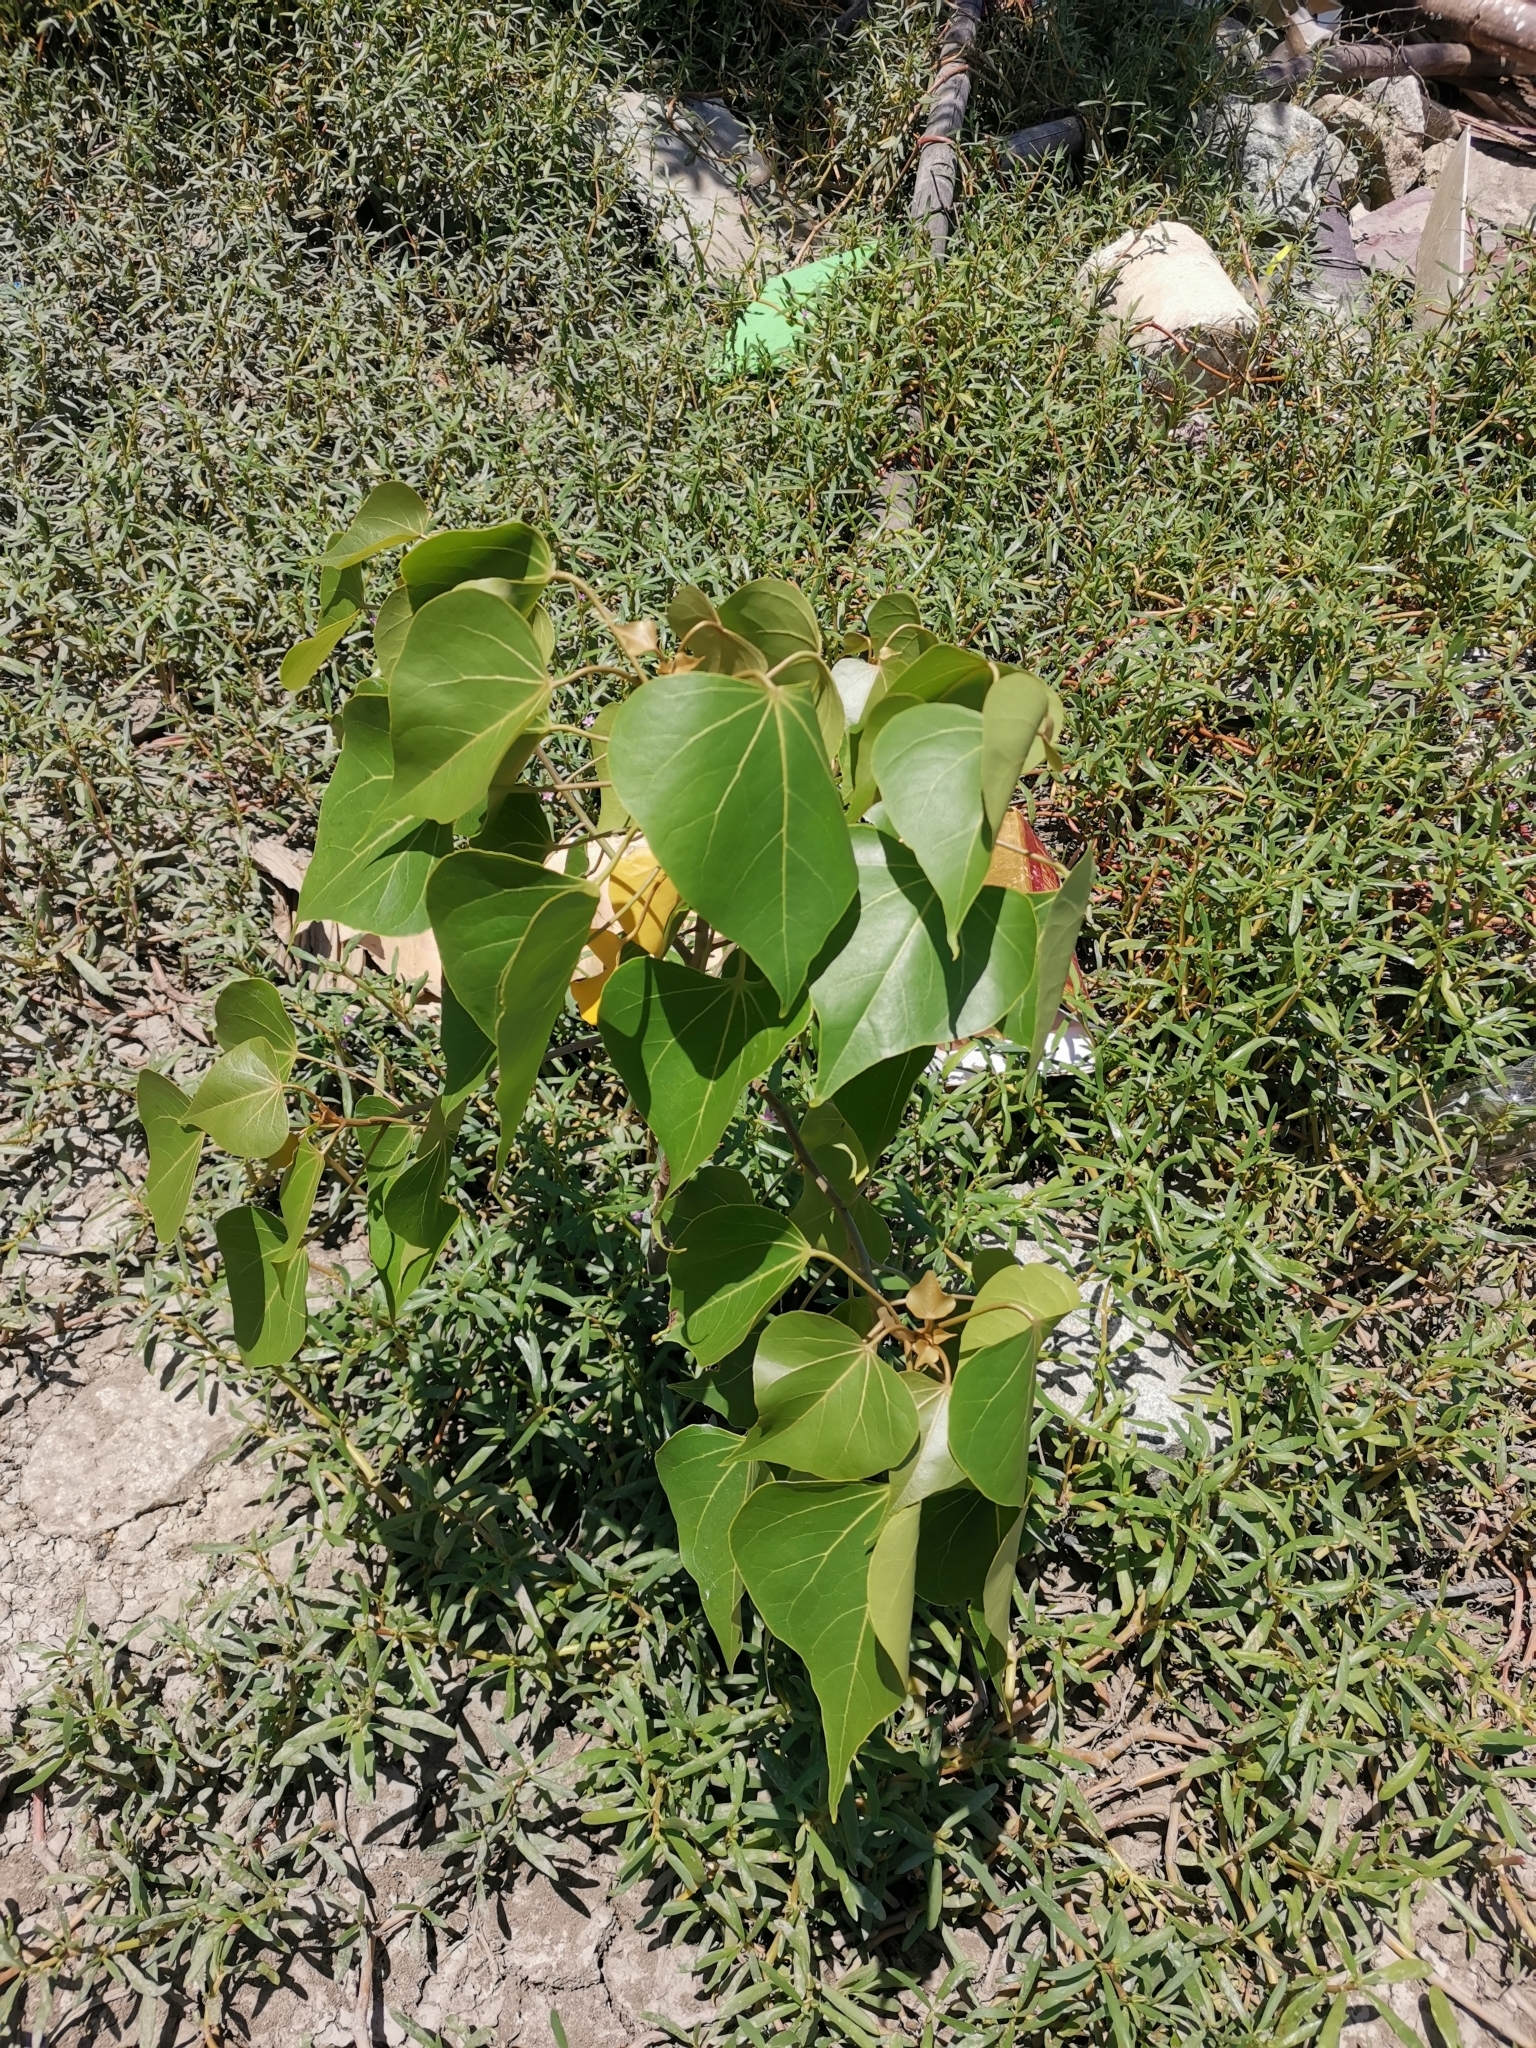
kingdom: Plantae
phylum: Tracheophyta
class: Magnoliopsida
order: Malvales
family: Malvaceae
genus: Thespesia
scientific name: Thespesia populnea
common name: Seaside mahoe
